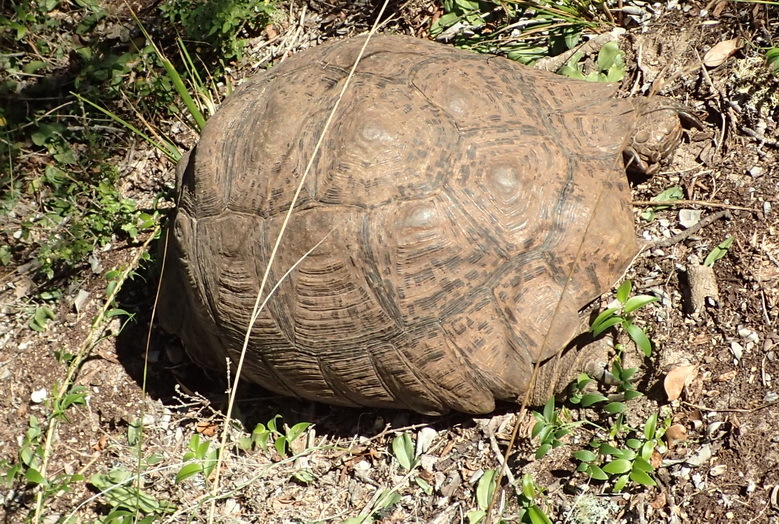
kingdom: Animalia
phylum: Chordata
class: Testudines
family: Testudinidae
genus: Stigmochelys
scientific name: Stigmochelys pardalis
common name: Leopard tortoise
